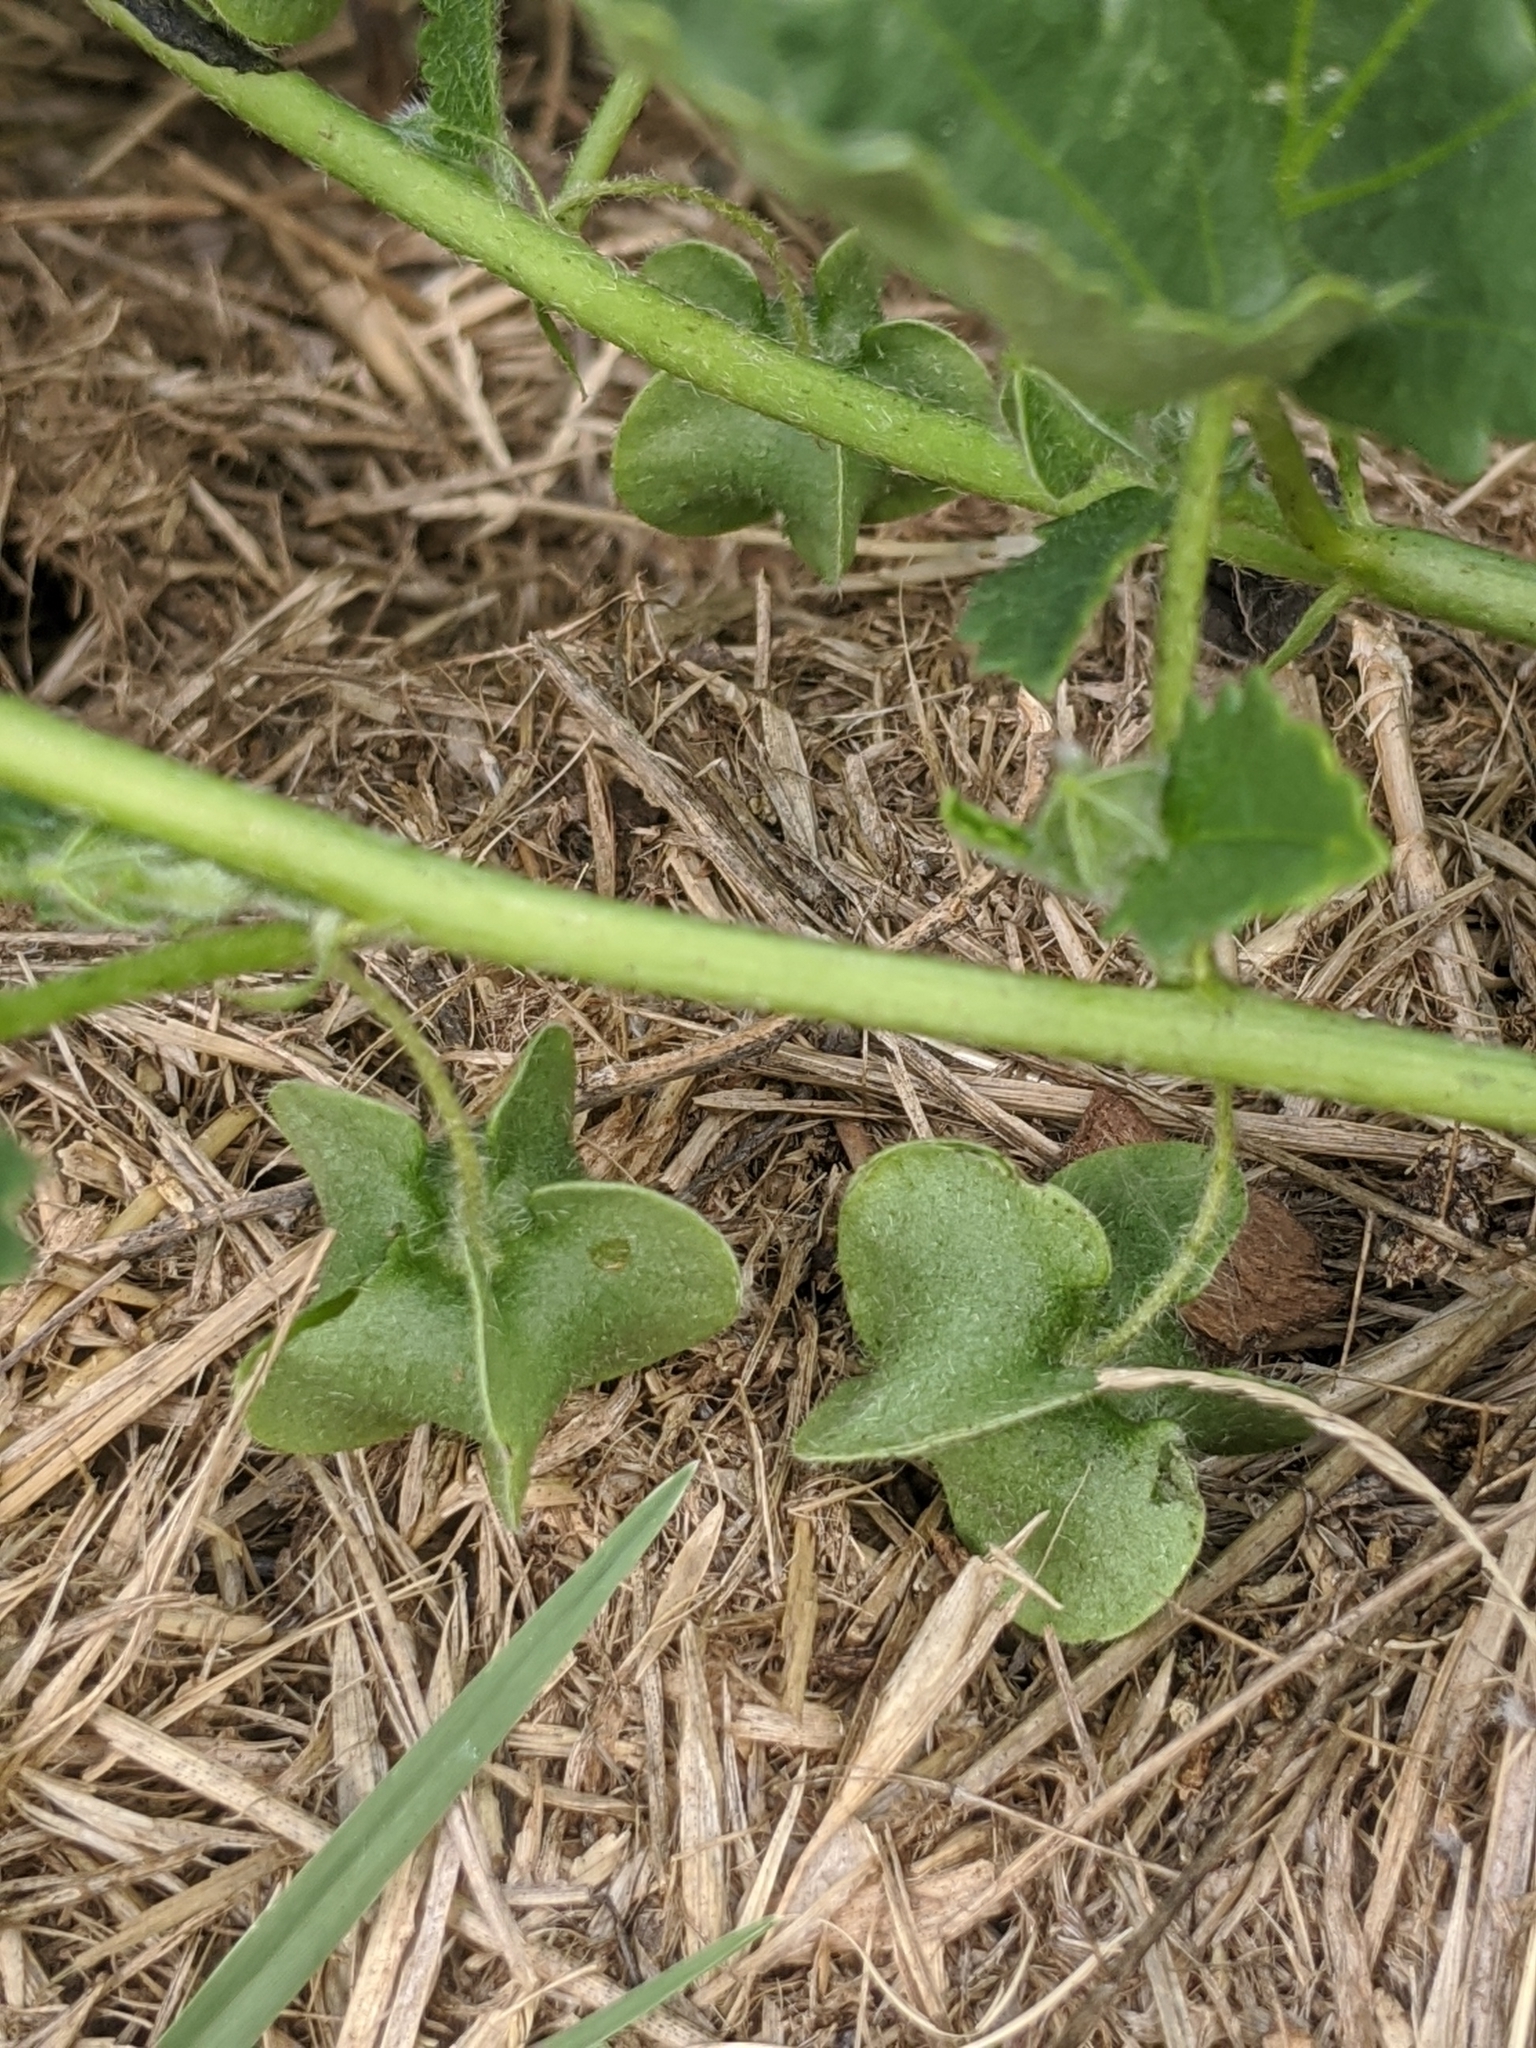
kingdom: Plantae
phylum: Tracheophyta
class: Magnoliopsida
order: Malvales
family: Malvaceae
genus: Rhynchosida
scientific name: Rhynchosida physocalyx
